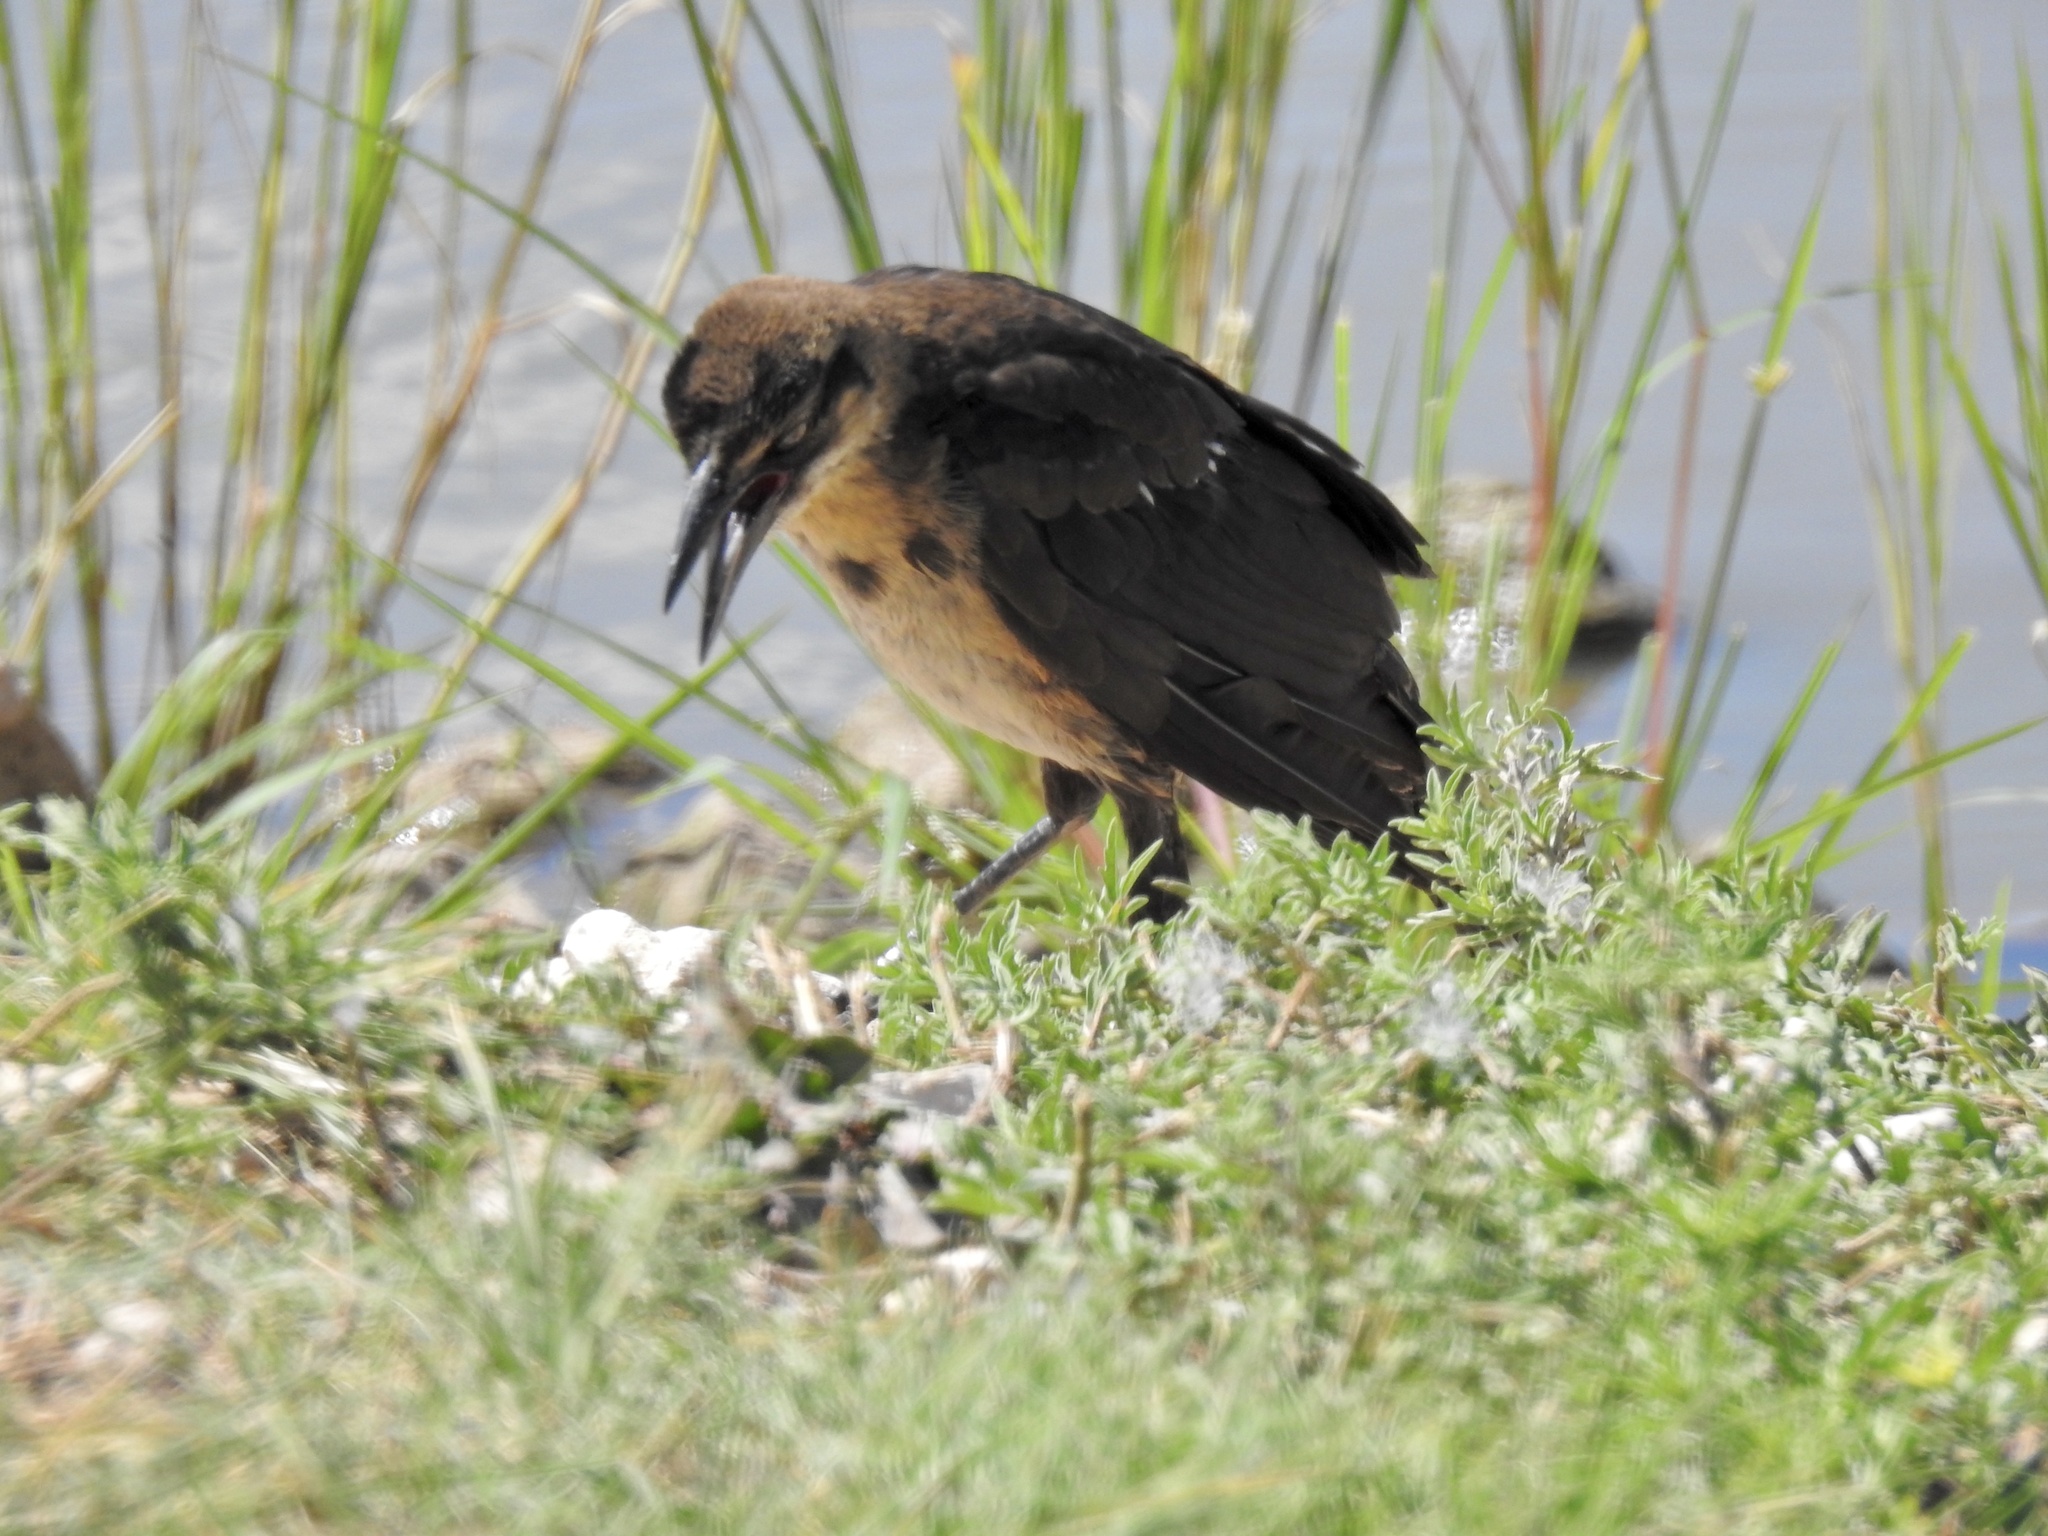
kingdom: Animalia
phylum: Chordata
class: Aves
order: Passeriformes
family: Icteridae
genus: Quiscalus
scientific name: Quiscalus mexicanus
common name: Great-tailed grackle
